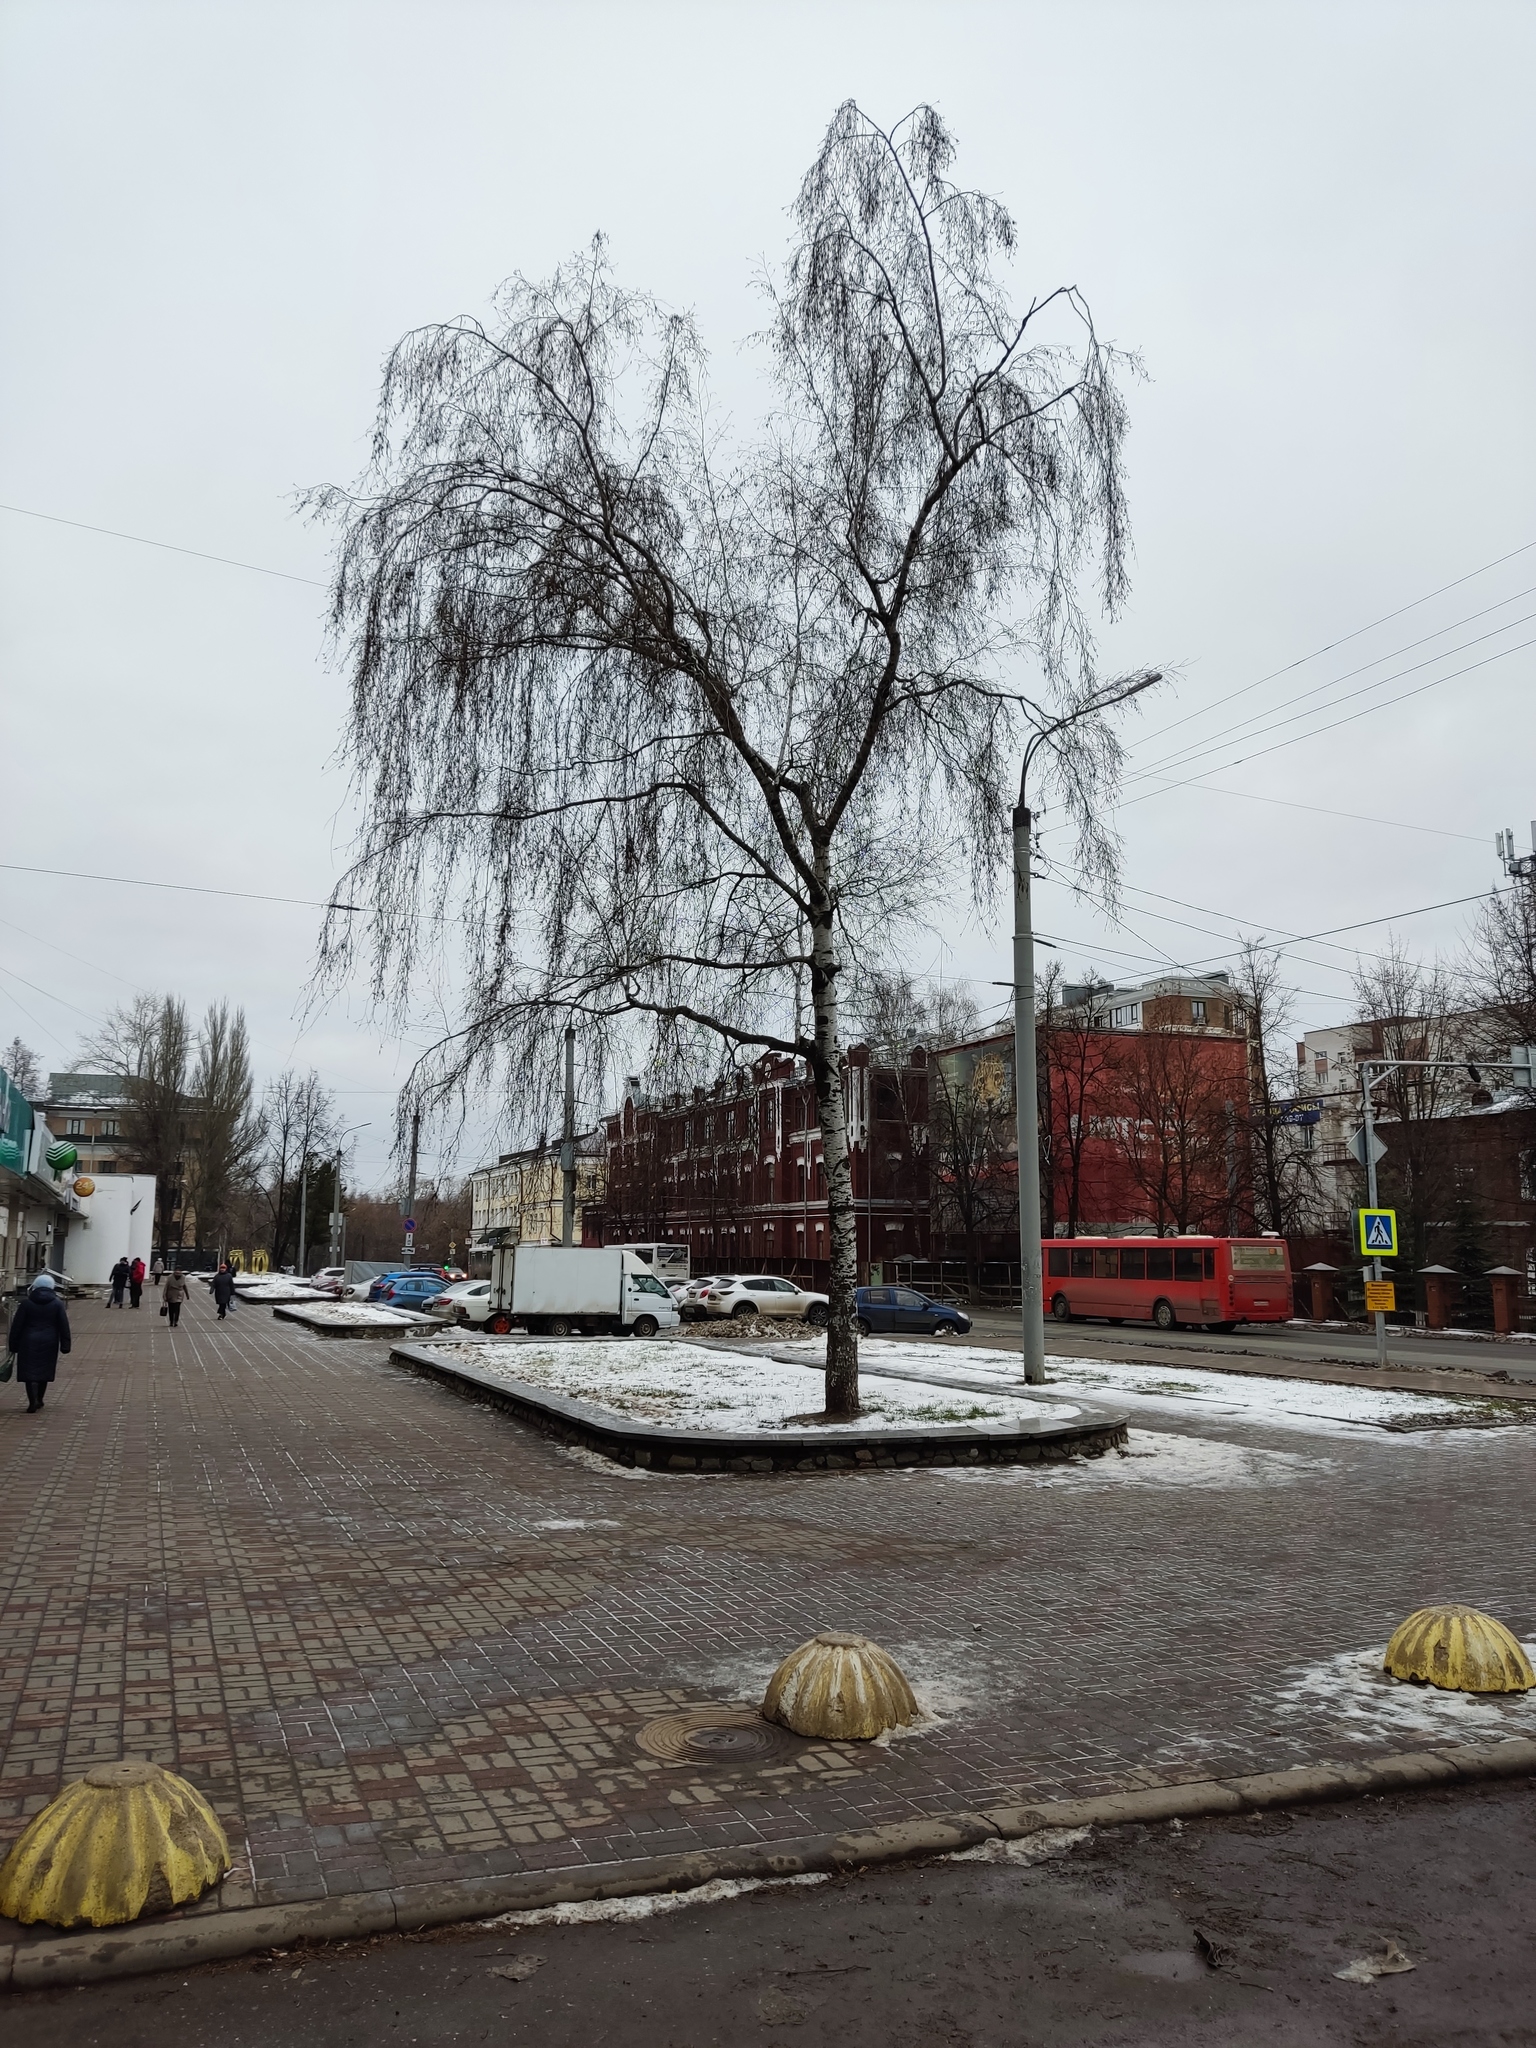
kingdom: Plantae
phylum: Tracheophyta
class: Magnoliopsida
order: Fagales
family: Betulaceae
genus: Betula
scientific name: Betula pendula
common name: Silver birch
